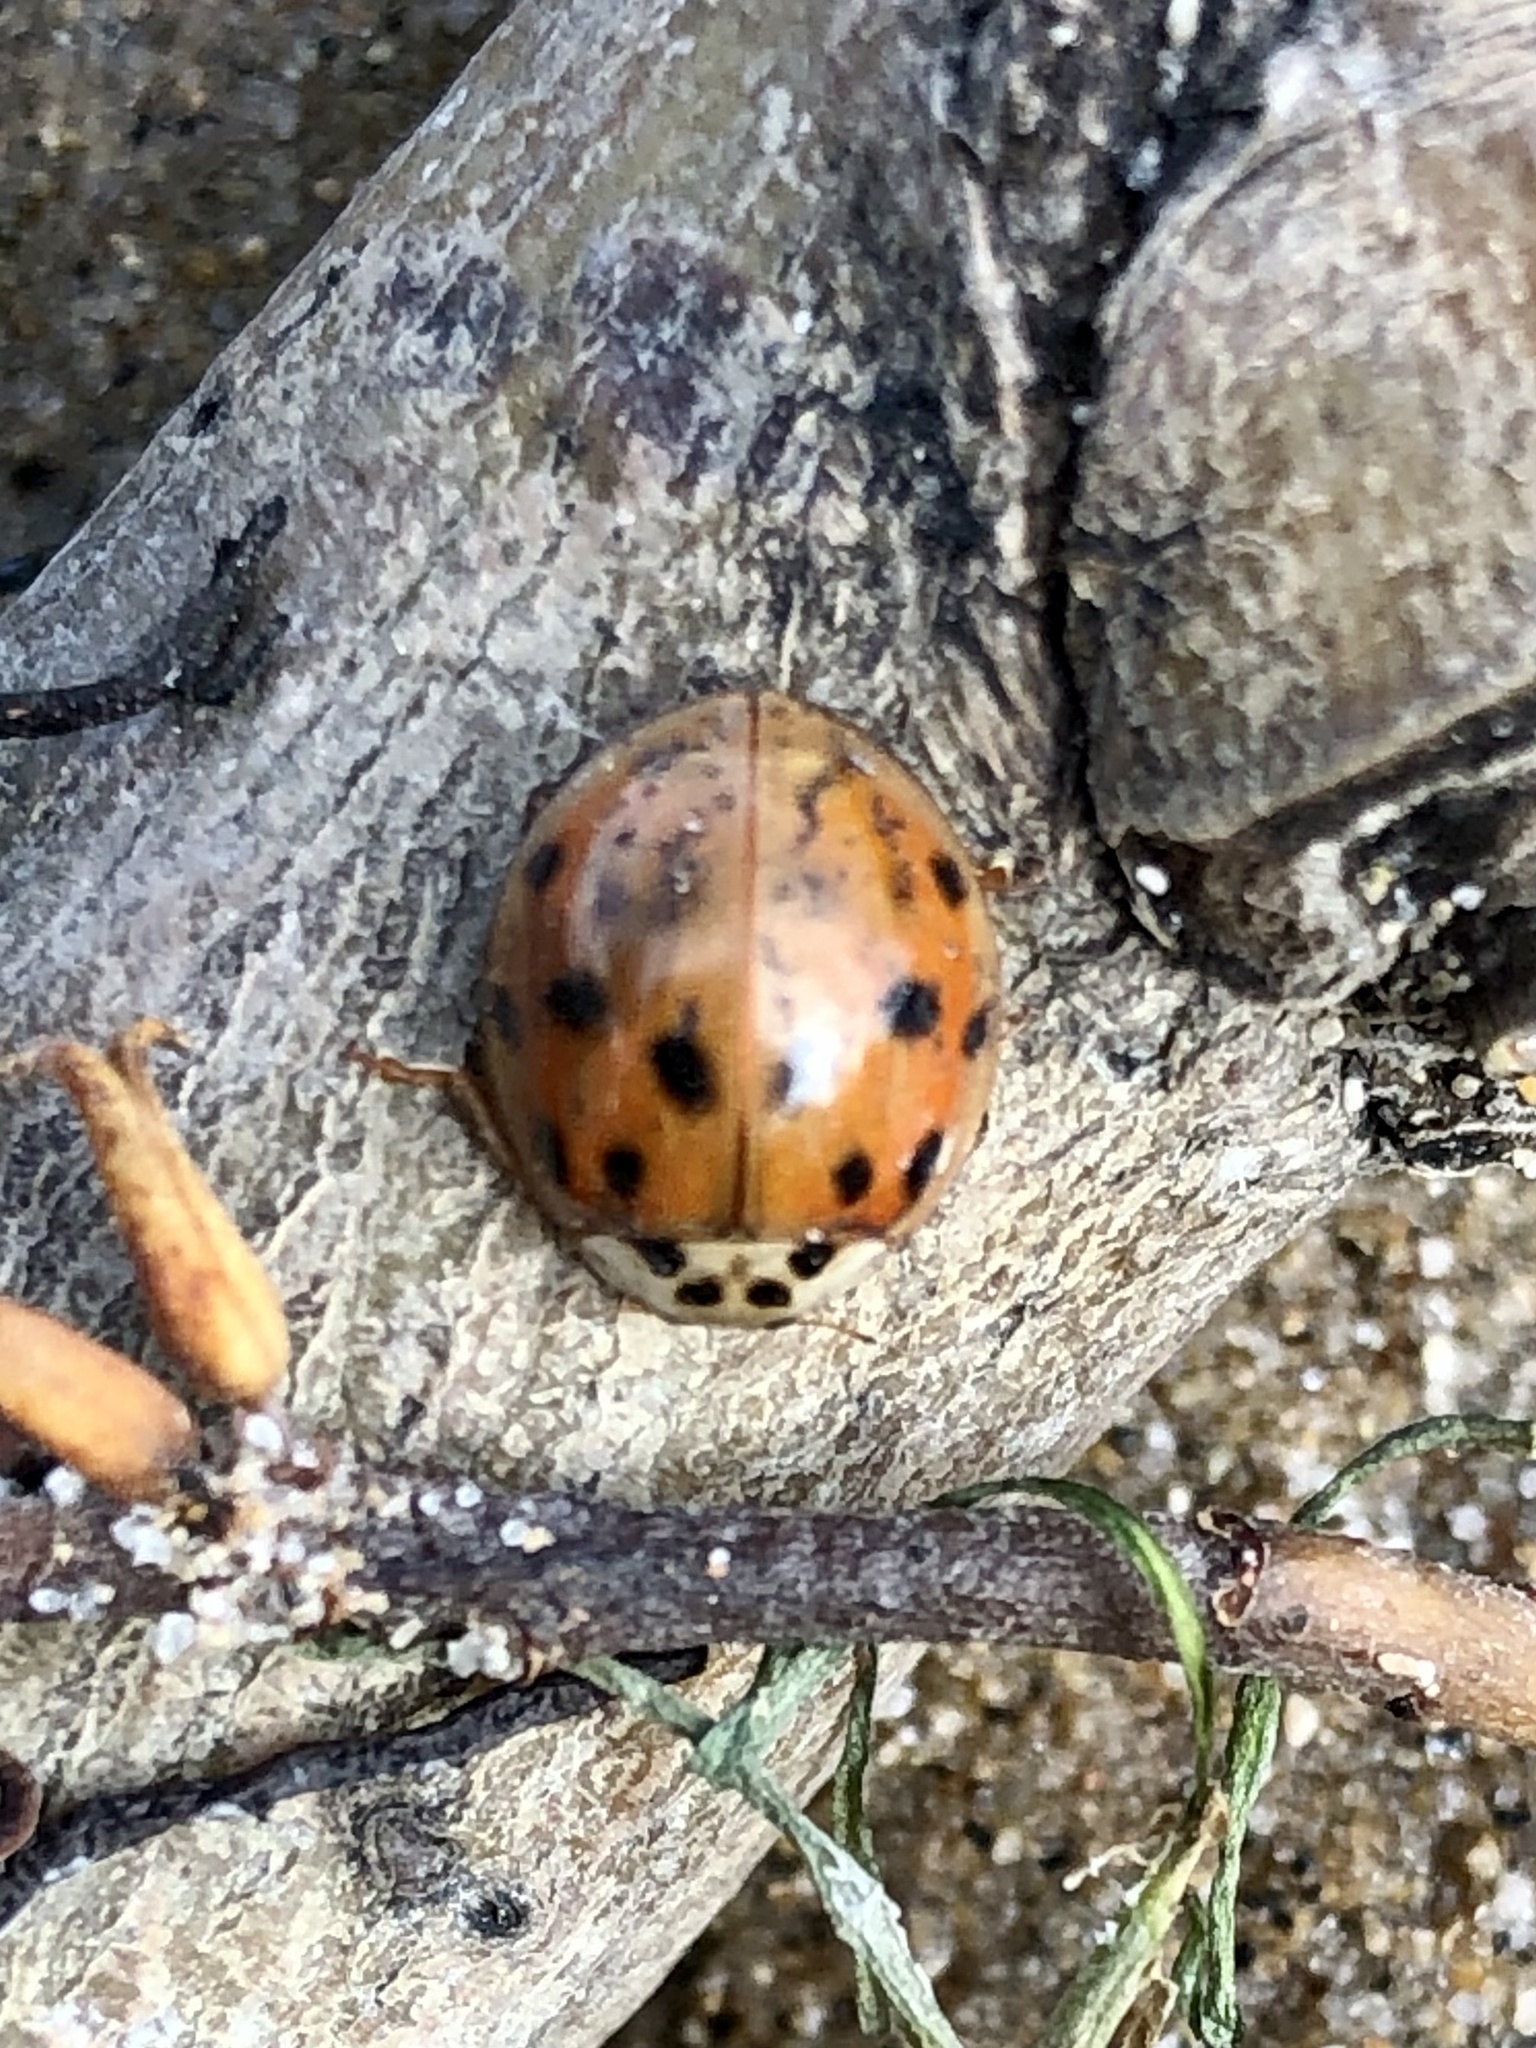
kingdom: Animalia
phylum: Arthropoda
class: Insecta
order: Coleoptera
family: Coccinellidae
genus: Harmonia
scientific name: Harmonia axyridis
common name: Harlequin ladybird
